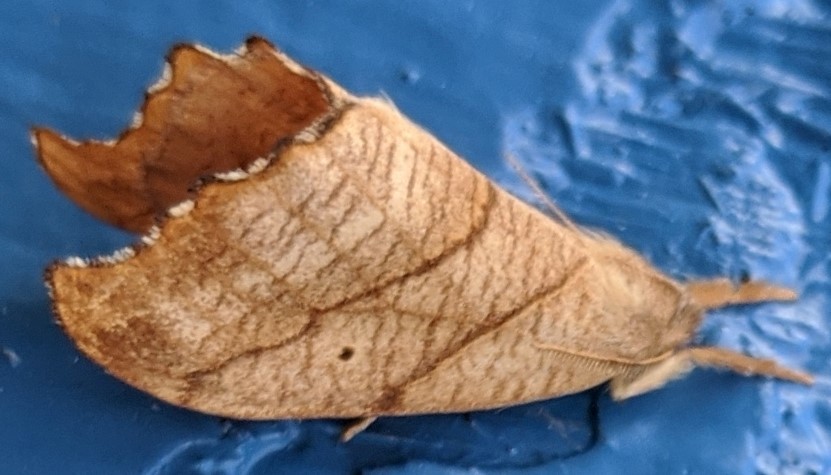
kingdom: Animalia
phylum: Arthropoda
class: Insecta
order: Lepidoptera
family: Drepanidae
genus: Falcaria
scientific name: Falcaria bilineata
